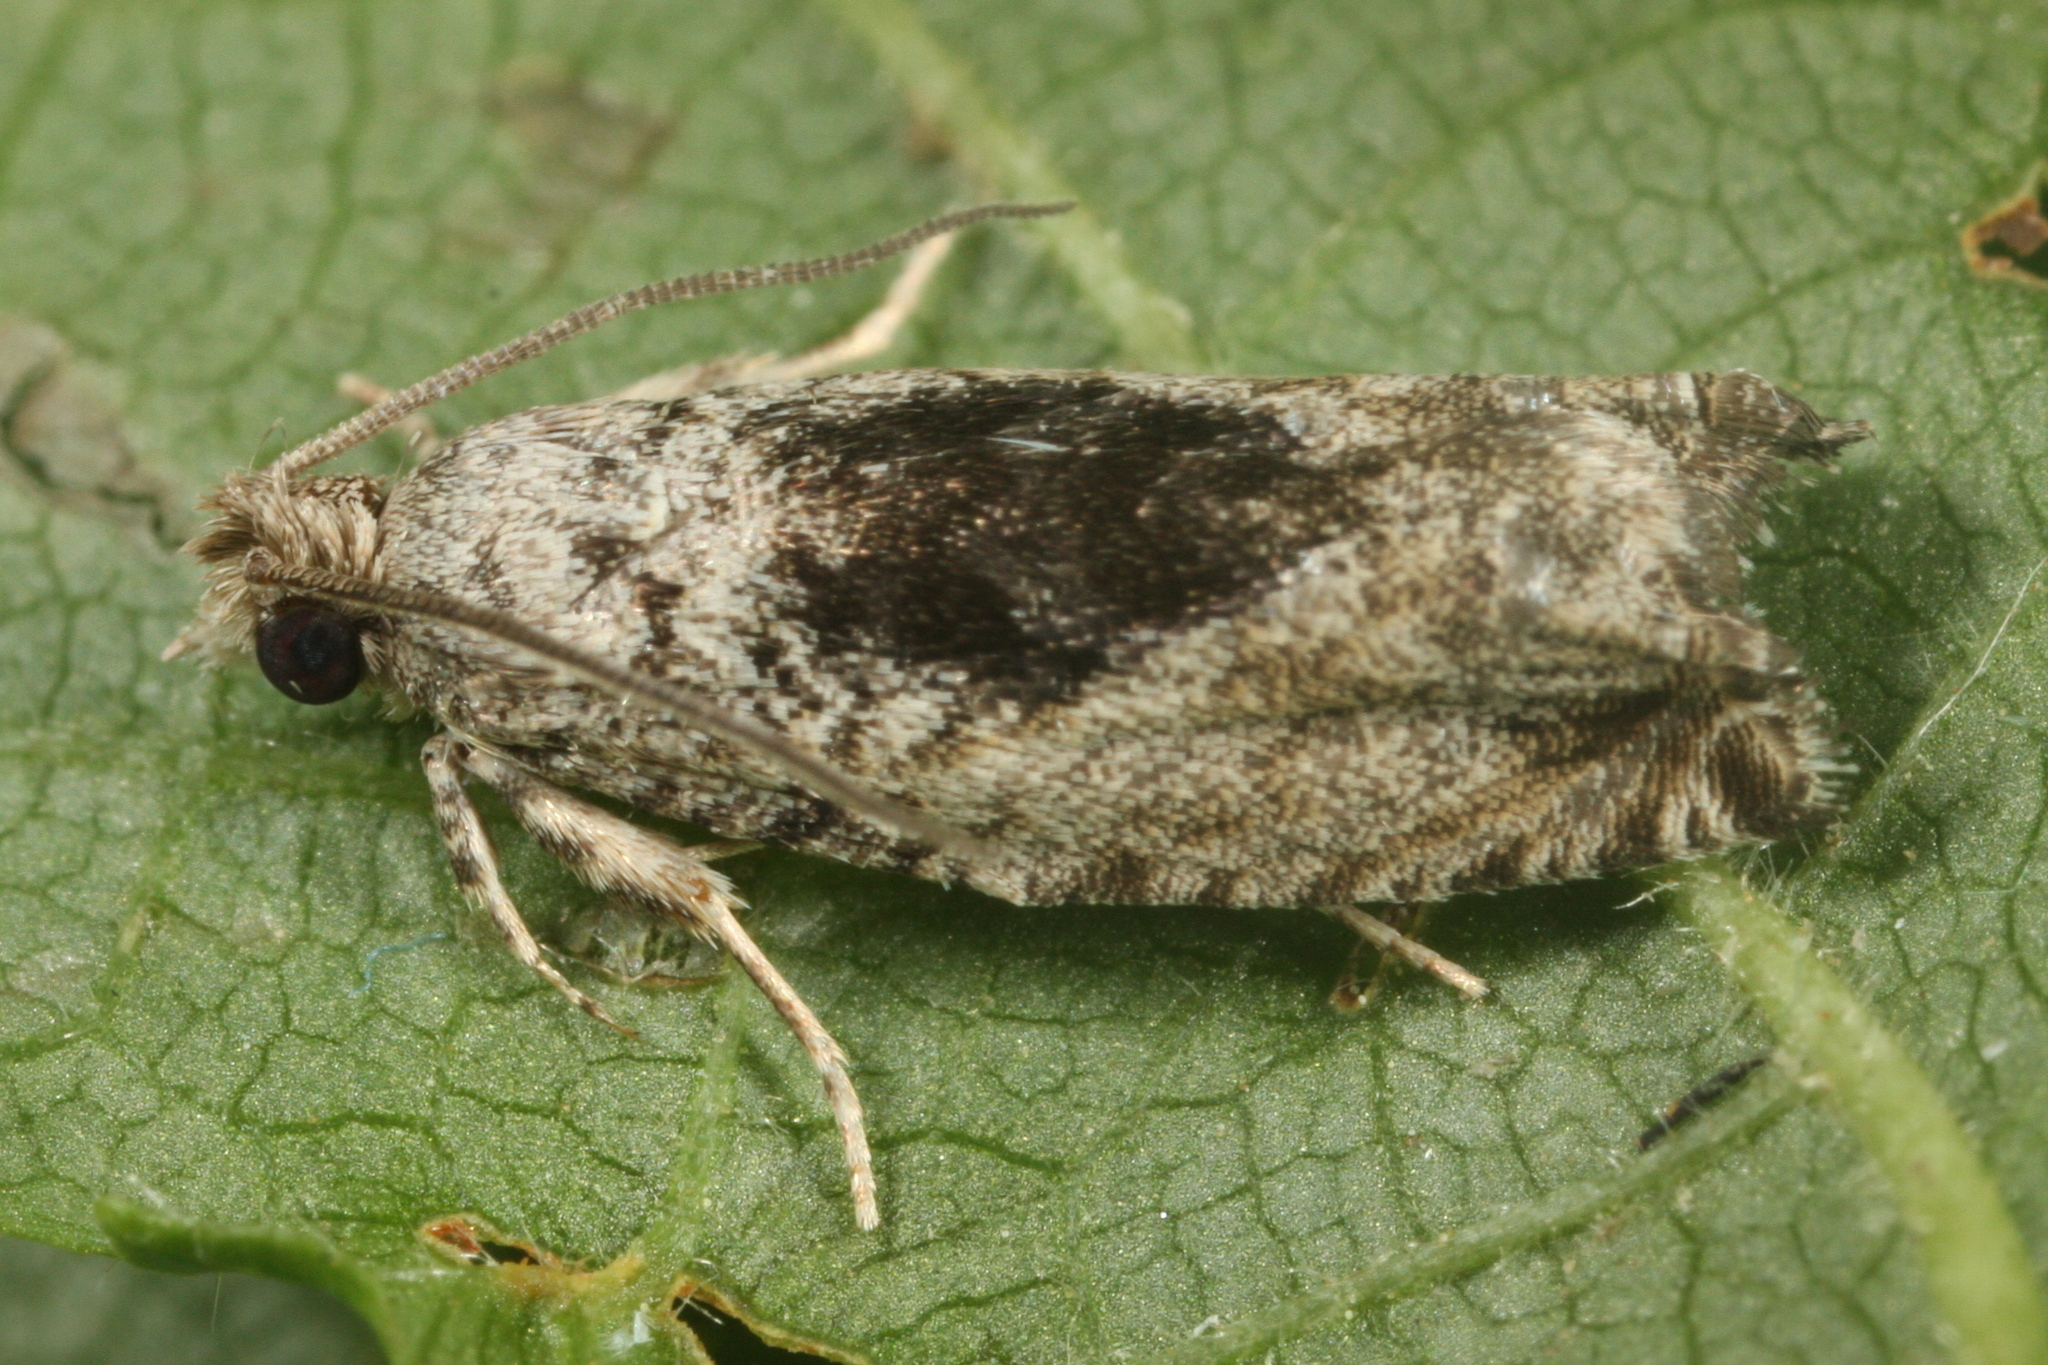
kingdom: Animalia
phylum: Arthropoda
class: Insecta
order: Lepidoptera
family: Tortricidae
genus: Epinotia
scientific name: Epinotia nisella
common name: Grey poplar bell
